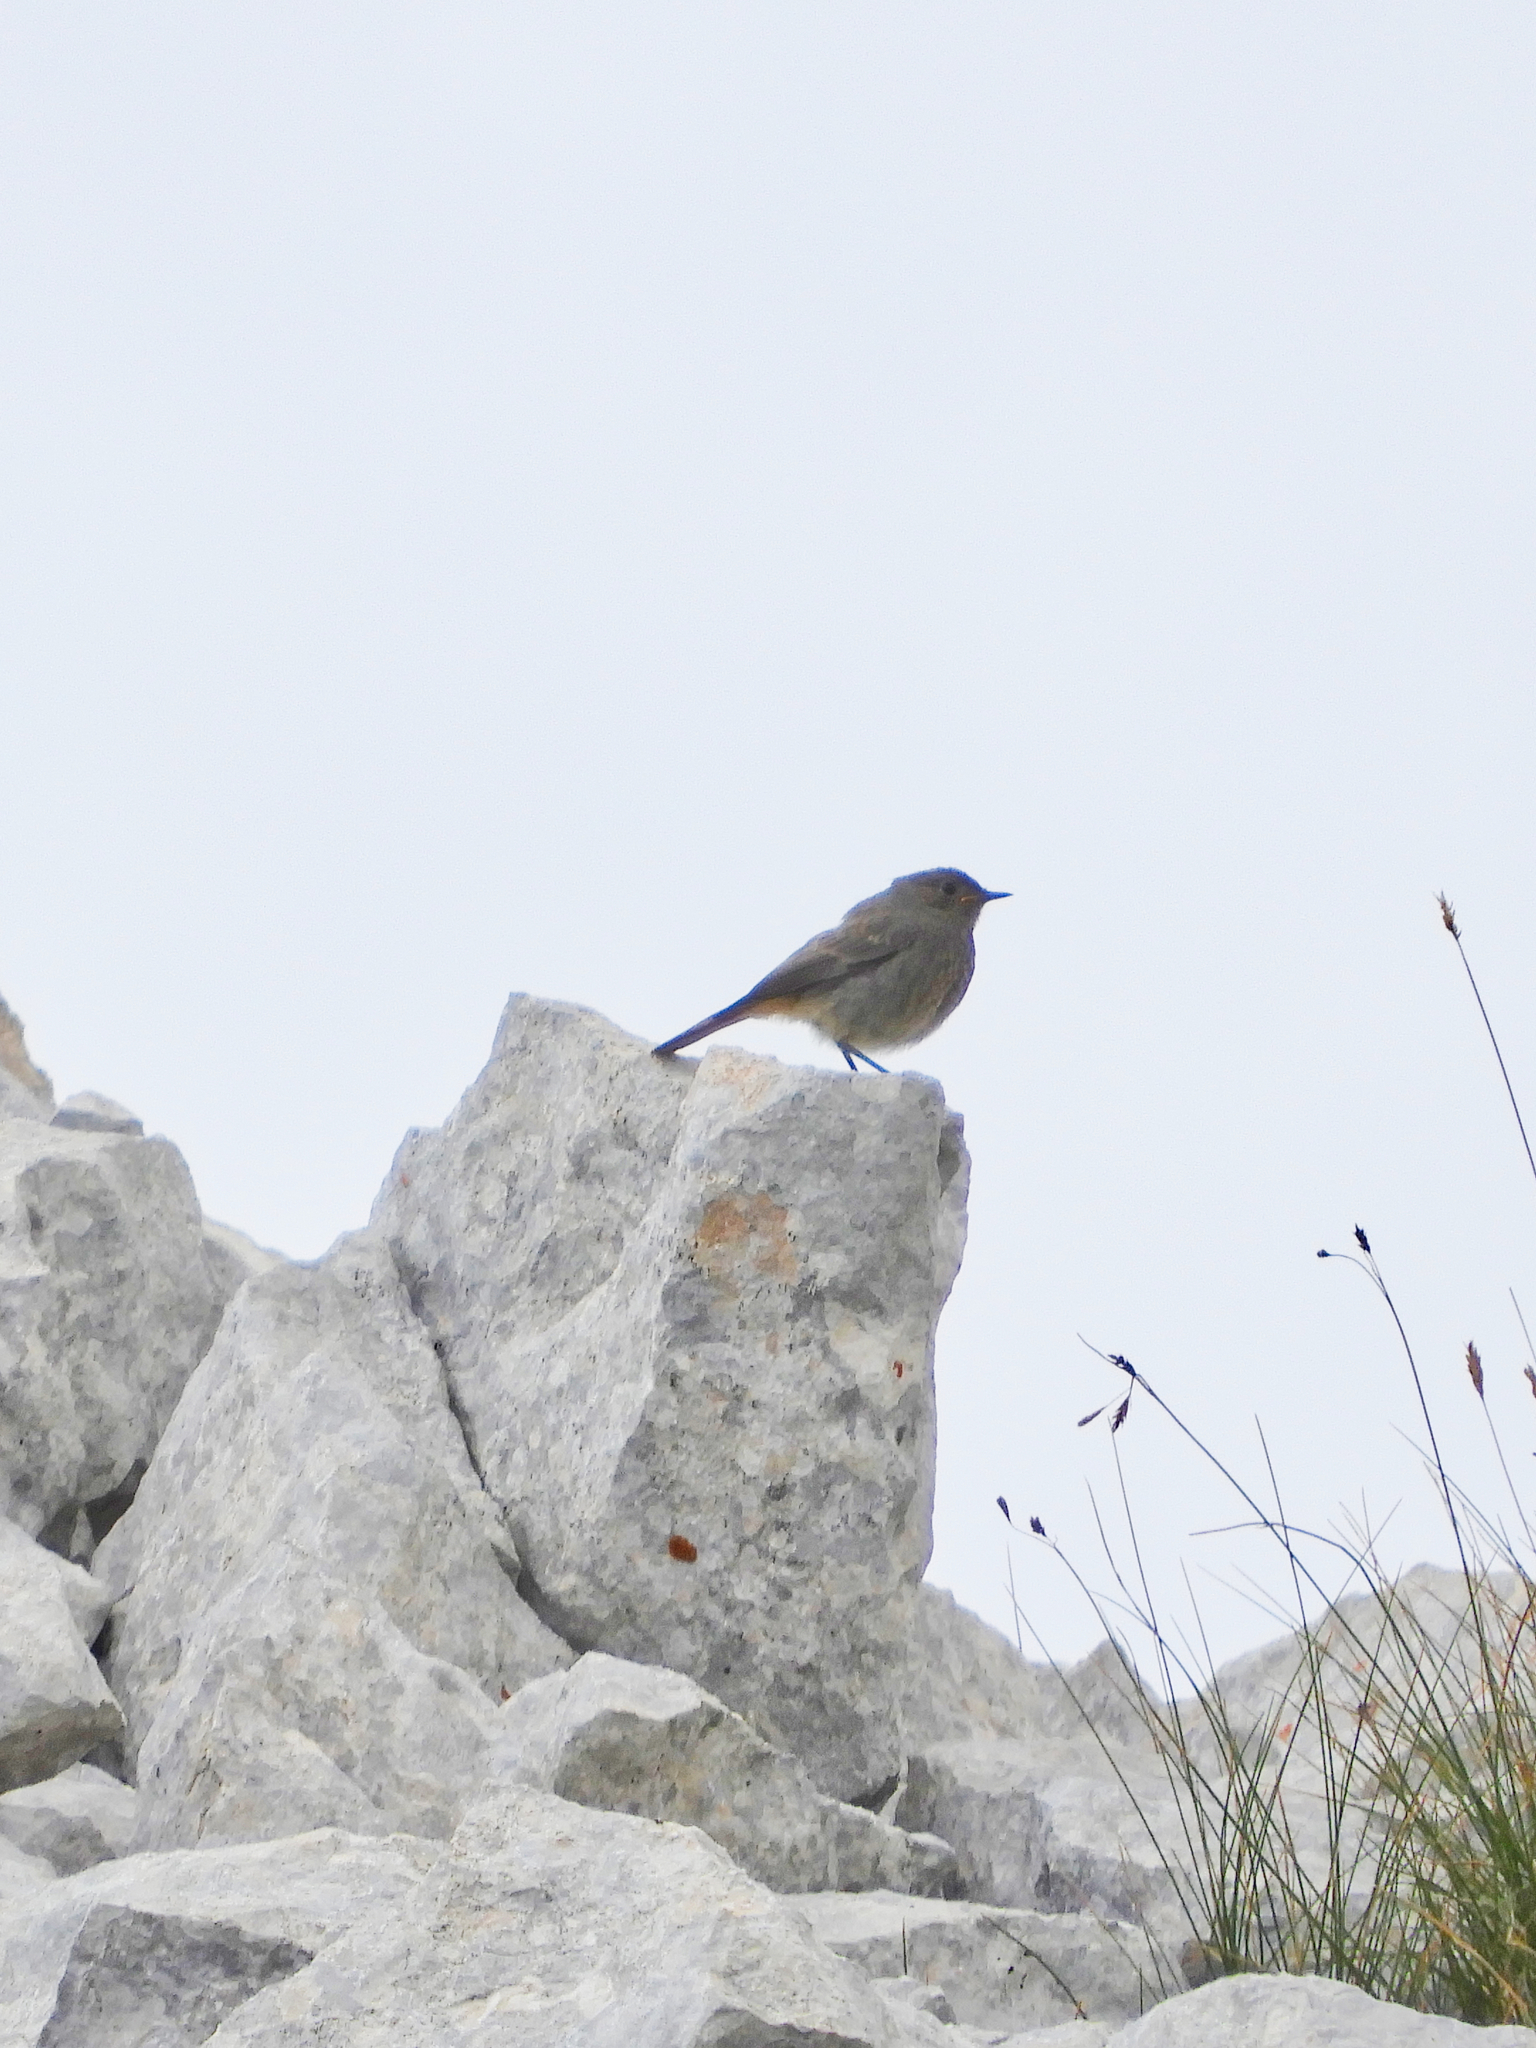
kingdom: Animalia
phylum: Chordata
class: Aves
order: Passeriformes
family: Muscicapidae
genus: Phoenicurus
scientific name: Phoenicurus ochruros
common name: Black redstart
